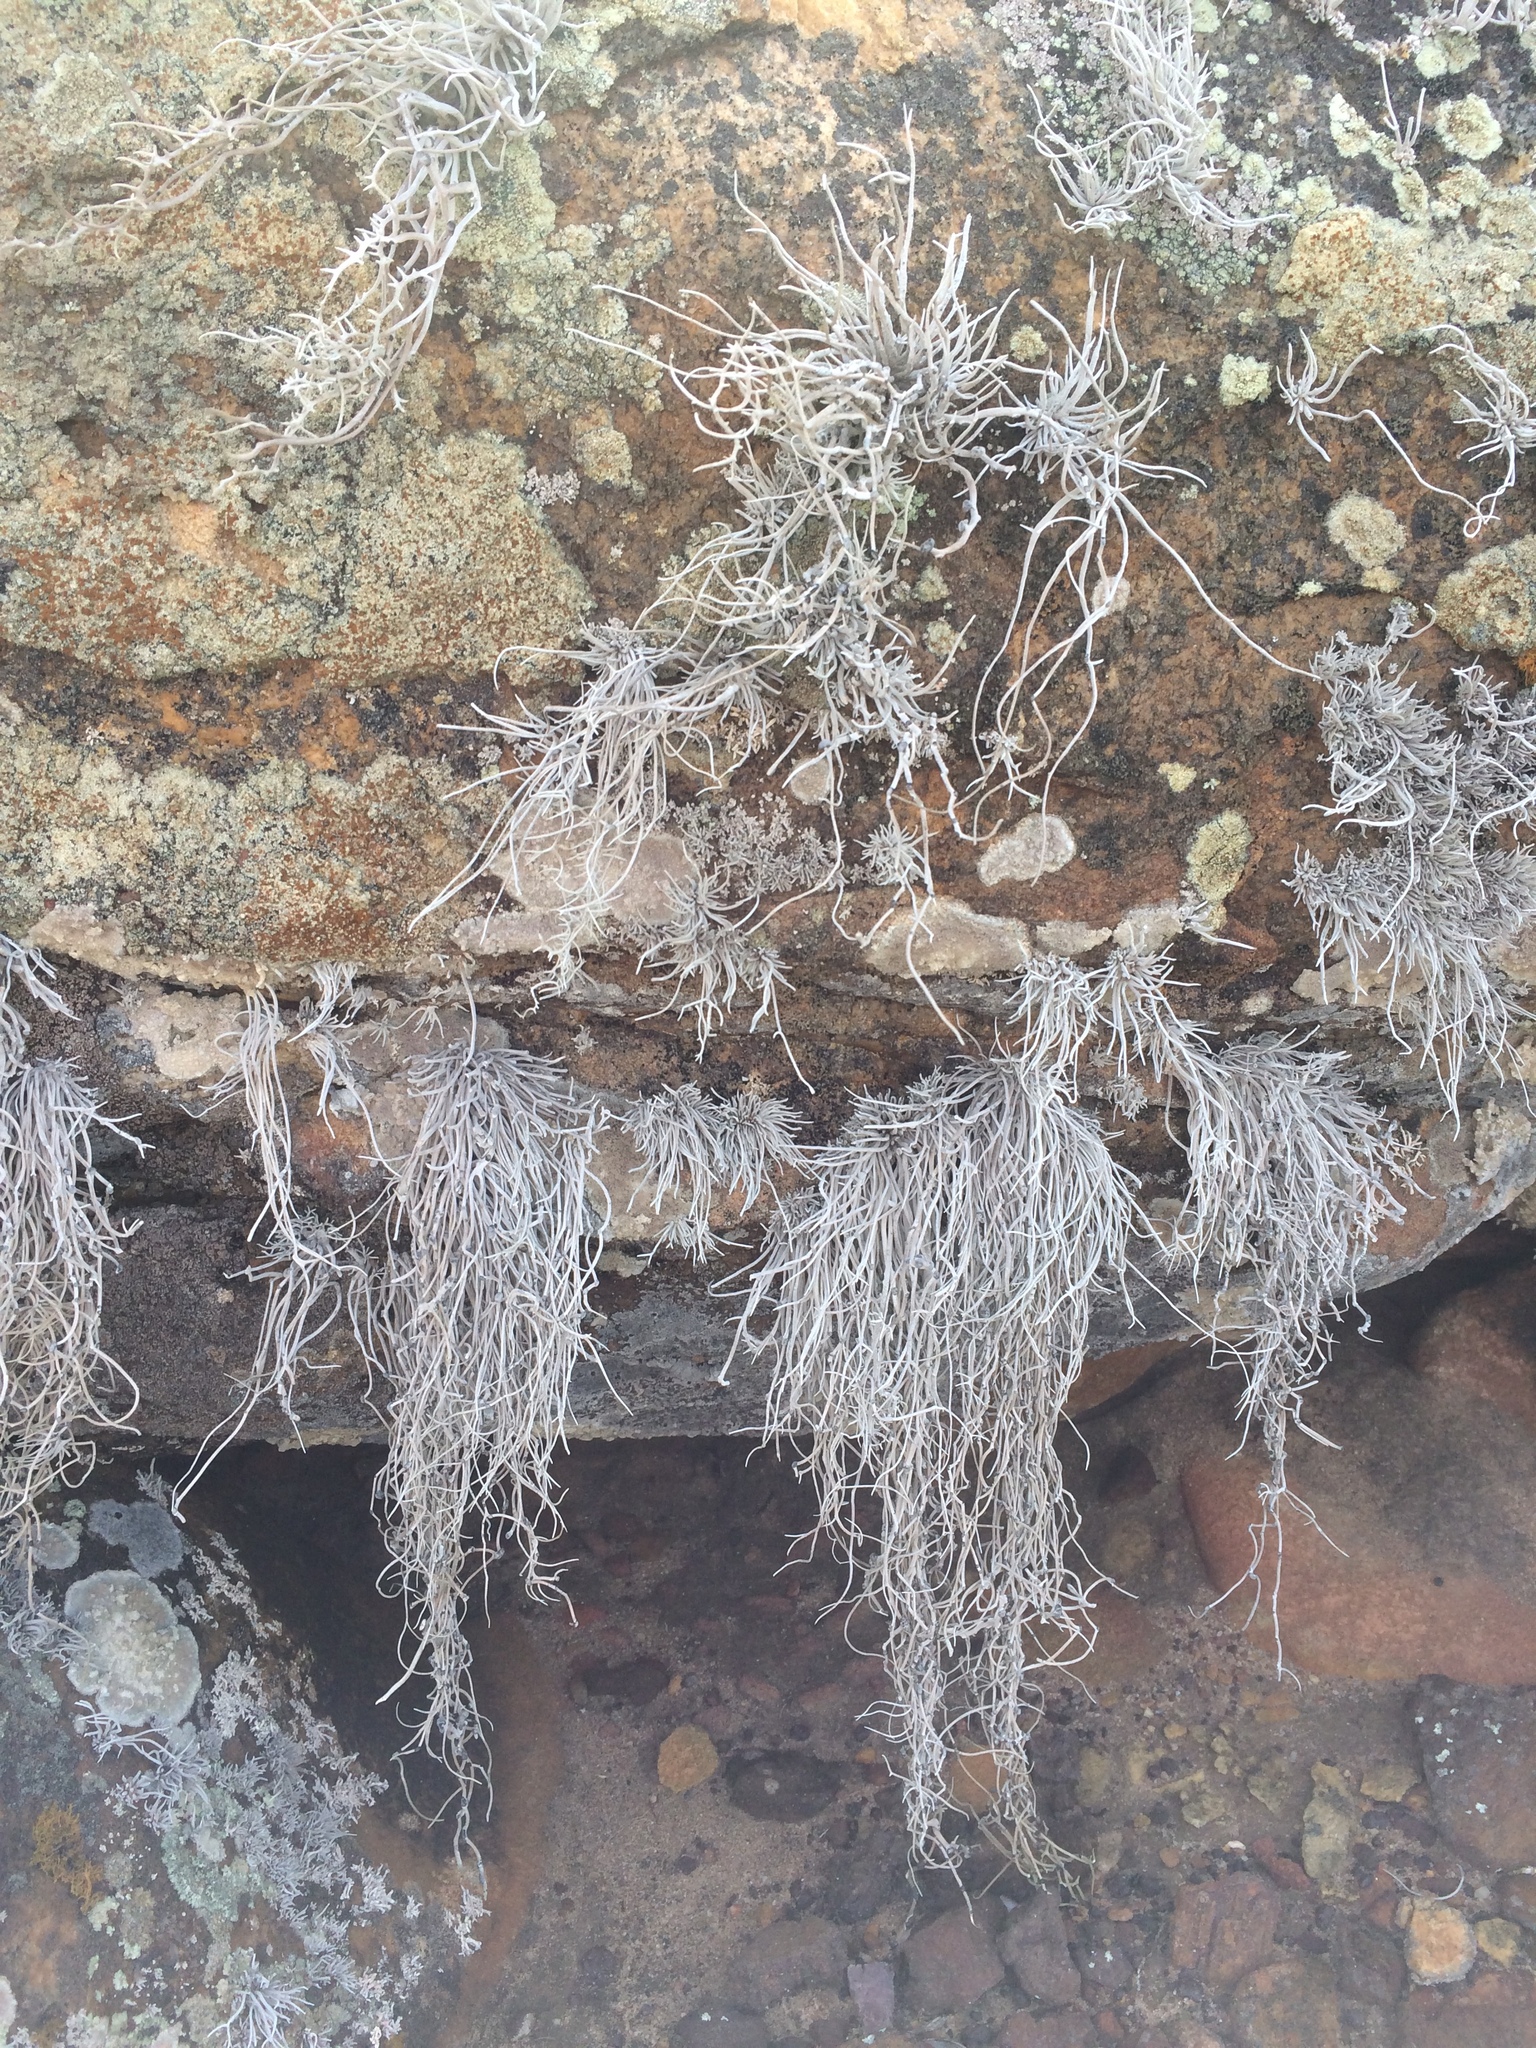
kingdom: Fungi
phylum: Ascomycota
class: Arthoniomycetes
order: Arthoniales
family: Roccellaceae
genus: Roccellina
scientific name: Roccellina hypomecha
